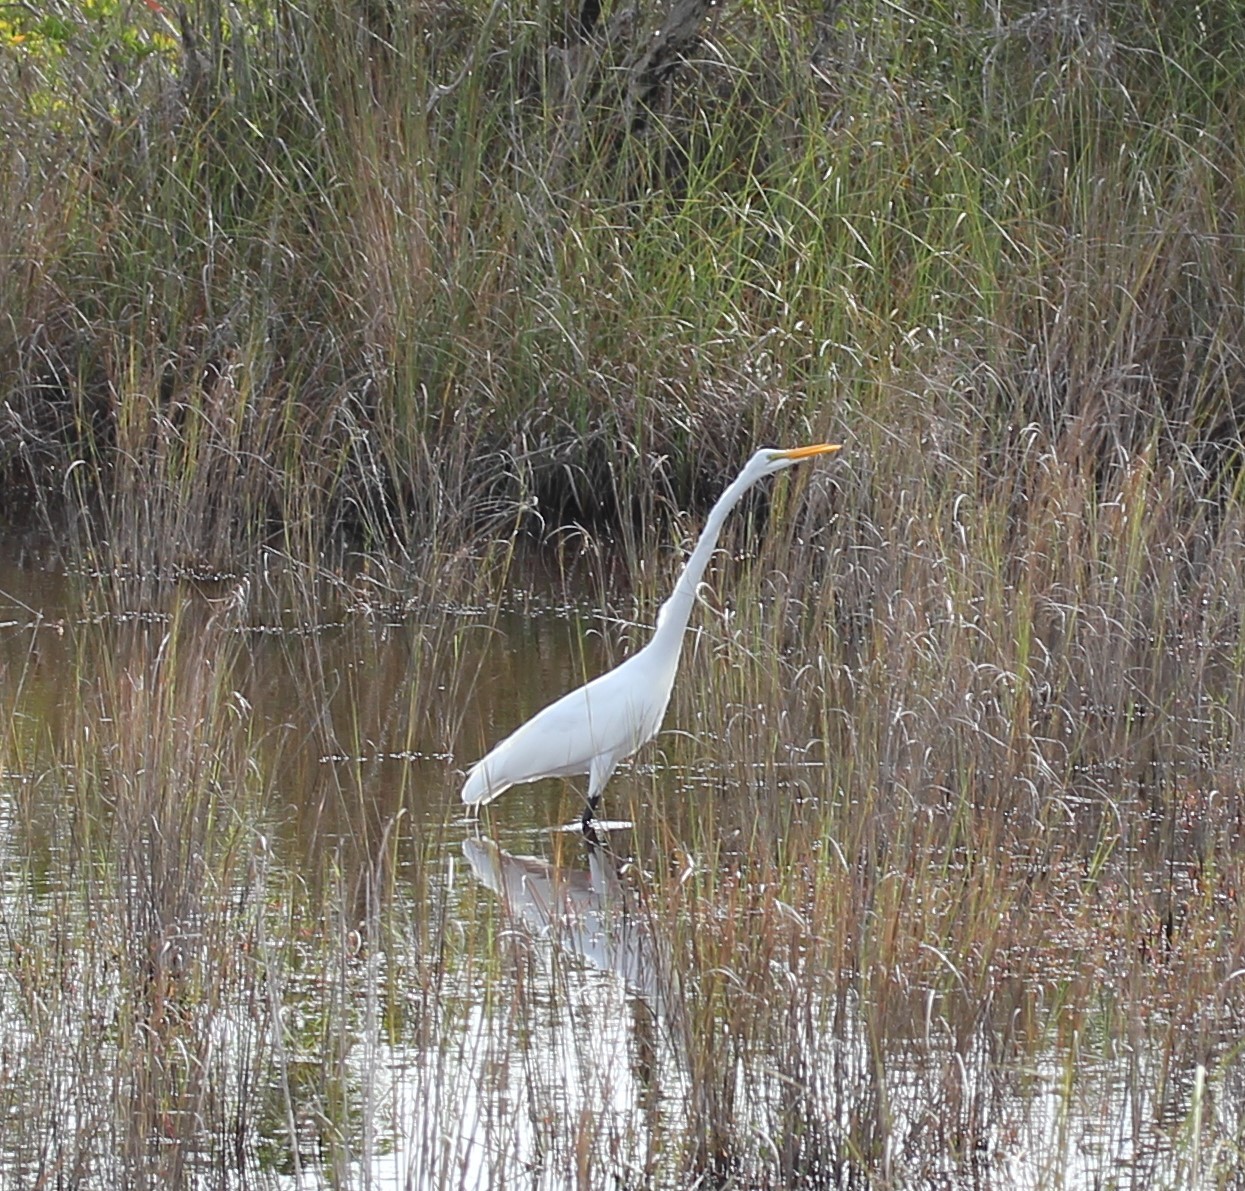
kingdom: Animalia
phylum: Chordata
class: Aves
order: Pelecaniformes
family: Ardeidae
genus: Ardea
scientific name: Ardea alba
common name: Great egret
